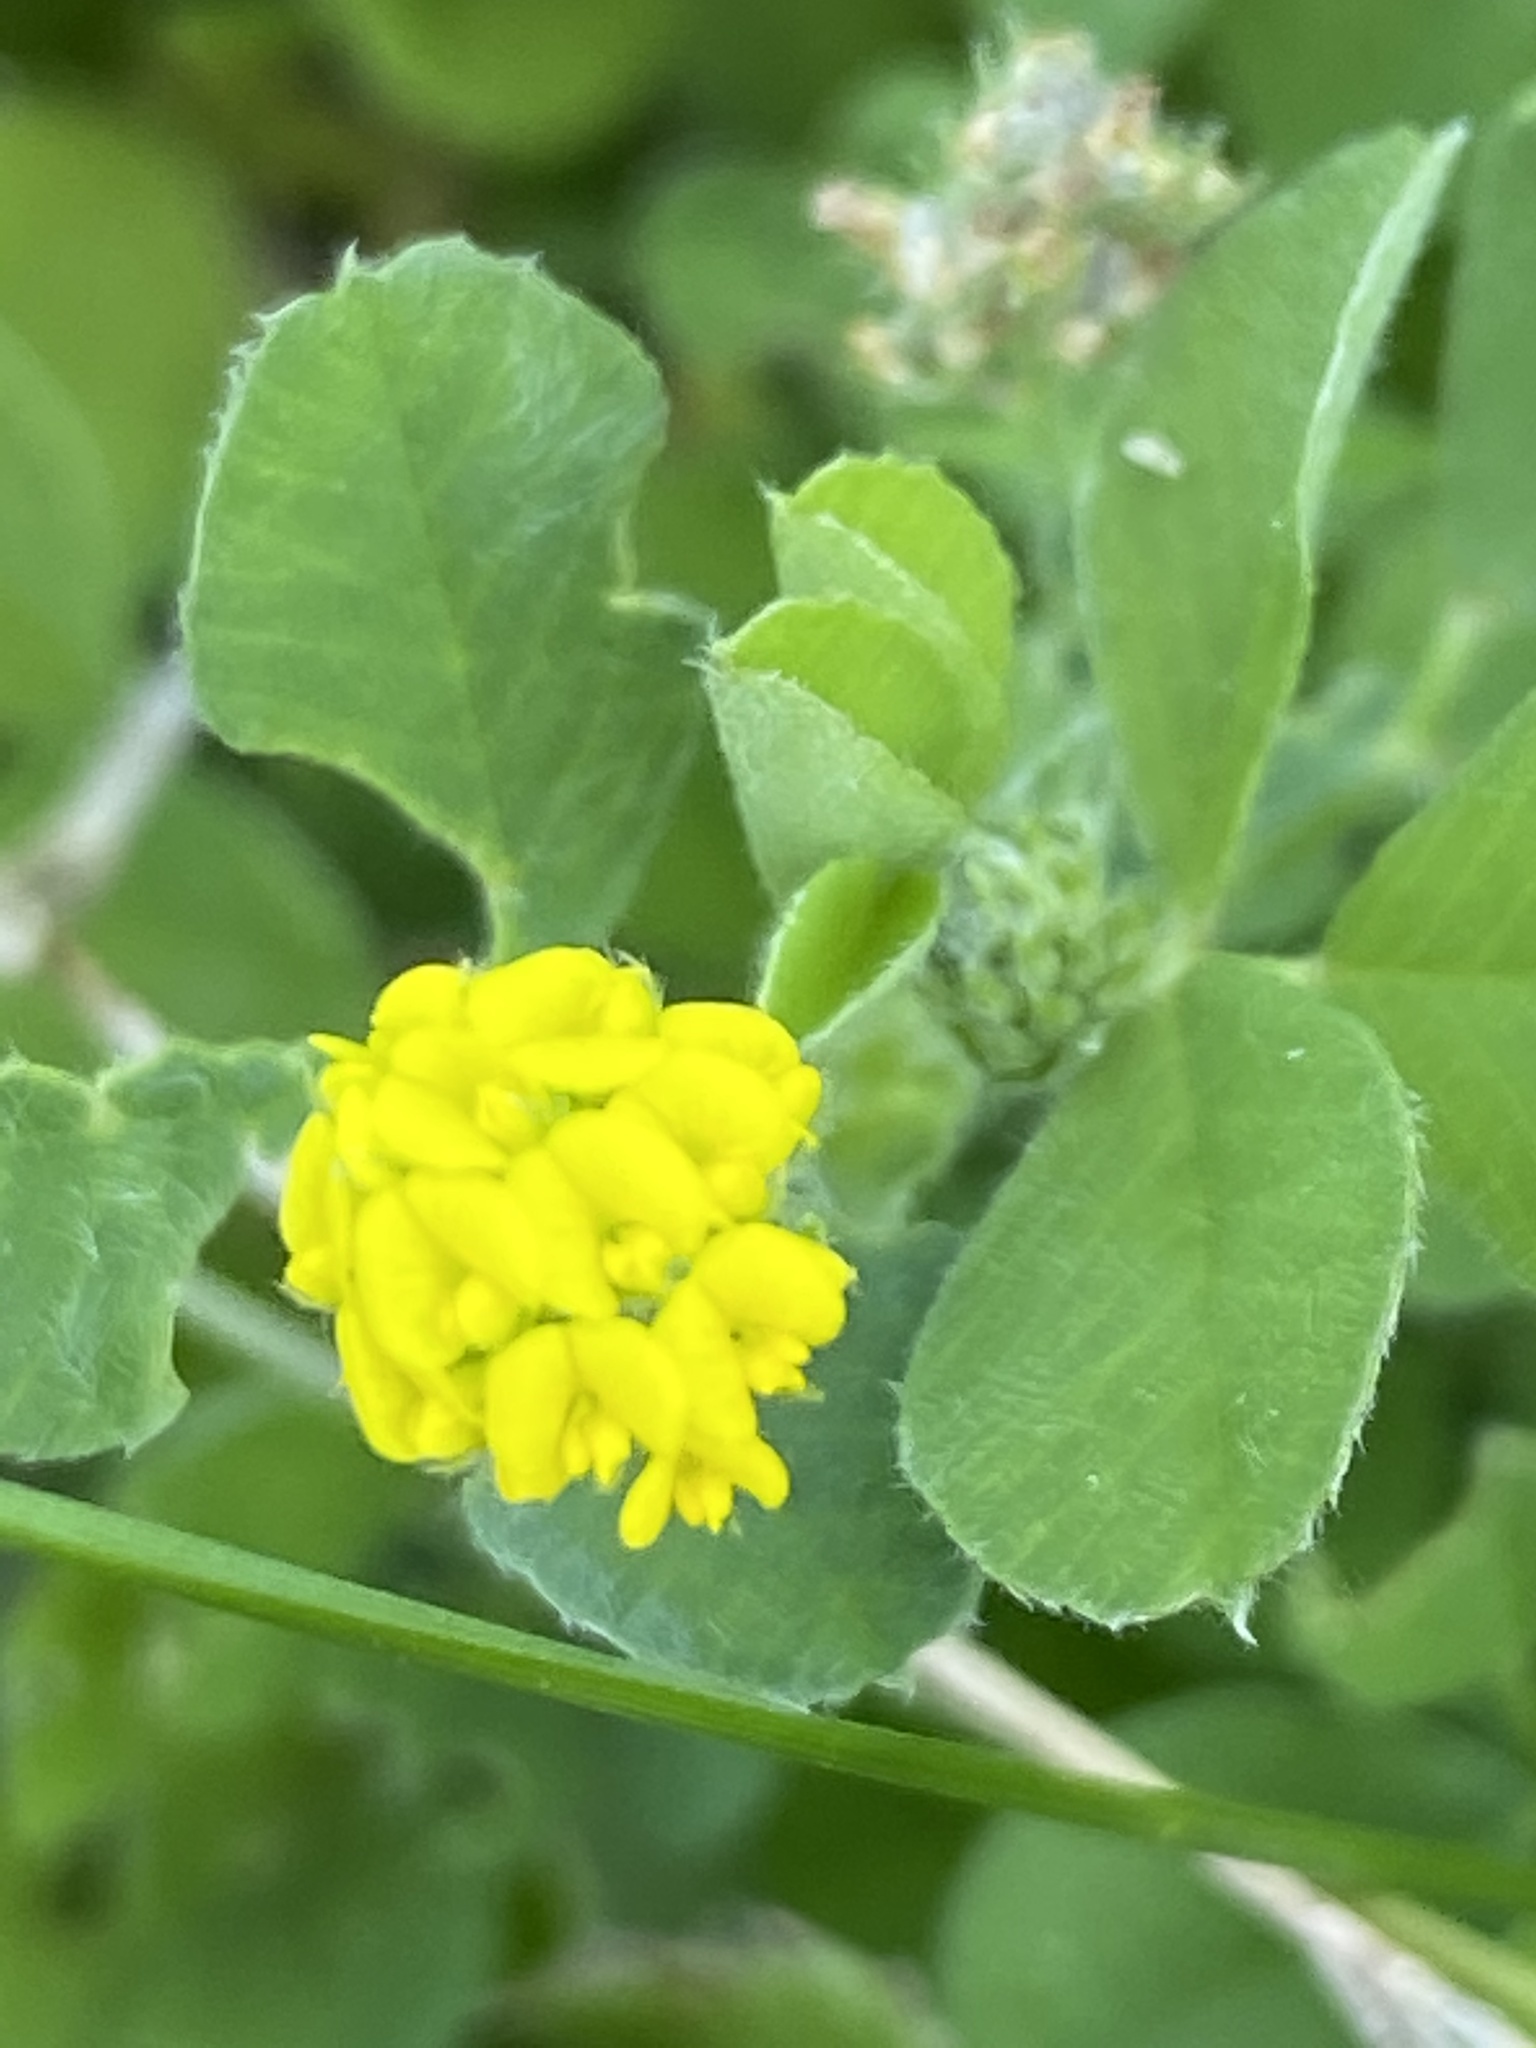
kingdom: Plantae
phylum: Tracheophyta
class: Magnoliopsida
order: Fabales
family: Fabaceae
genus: Medicago
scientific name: Medicago lupulina
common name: Black medick
